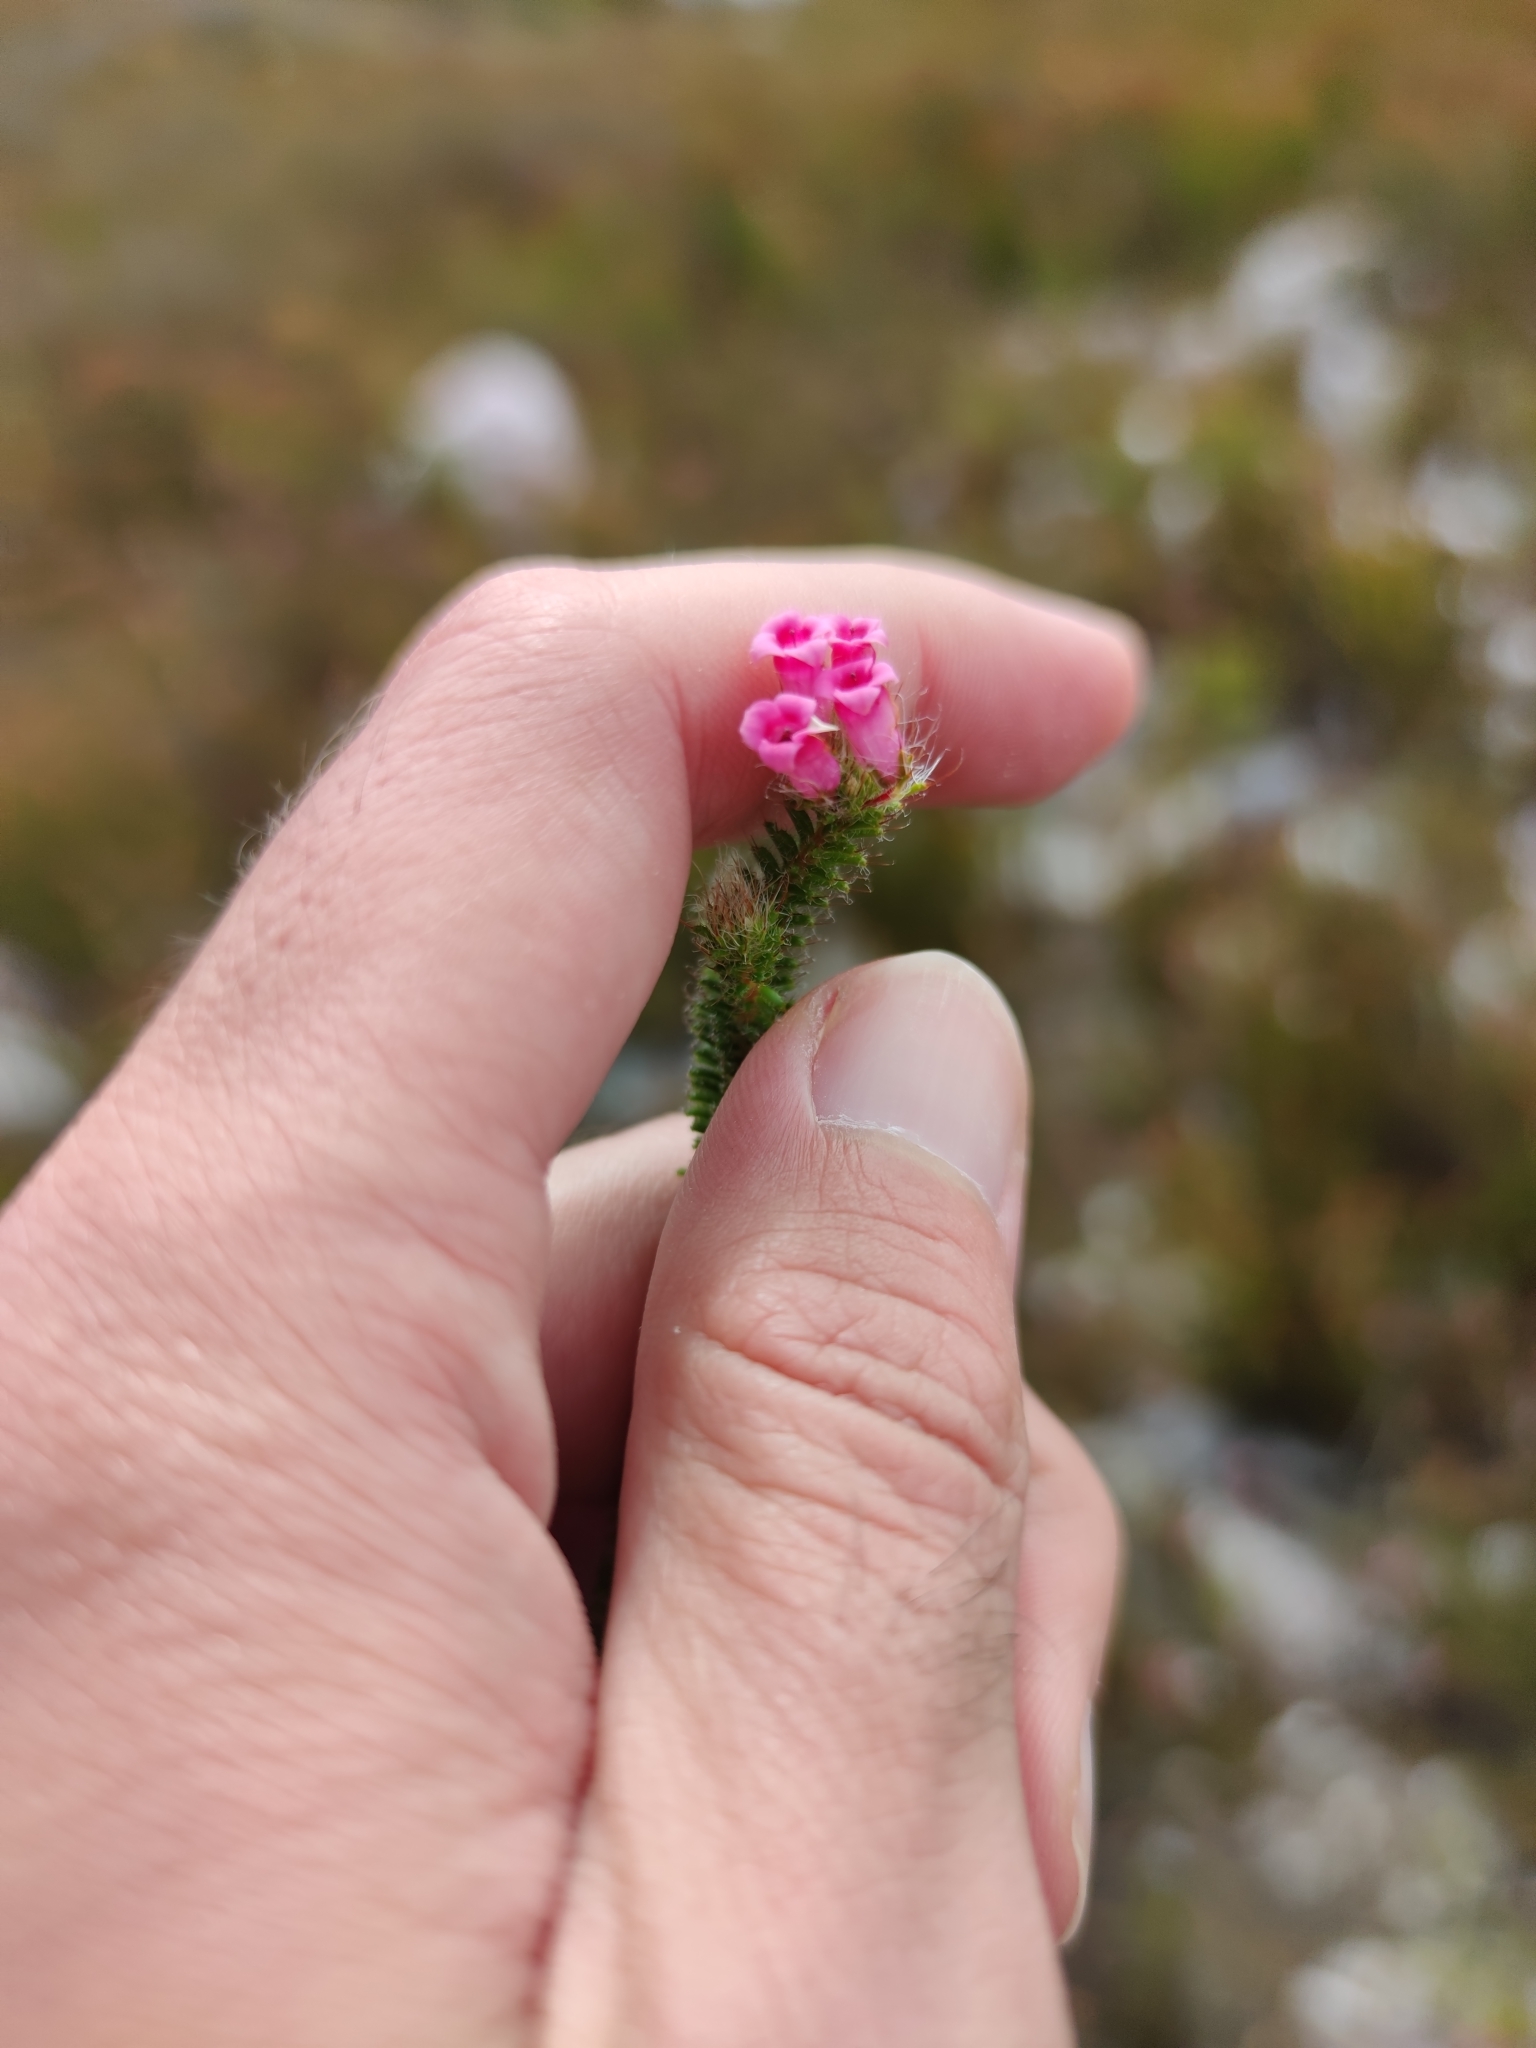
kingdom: Plantae
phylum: Tracheophyta
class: Magnoliopsida
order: Ericales
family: Ericaceae
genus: Erica
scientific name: Erica gysbertii
